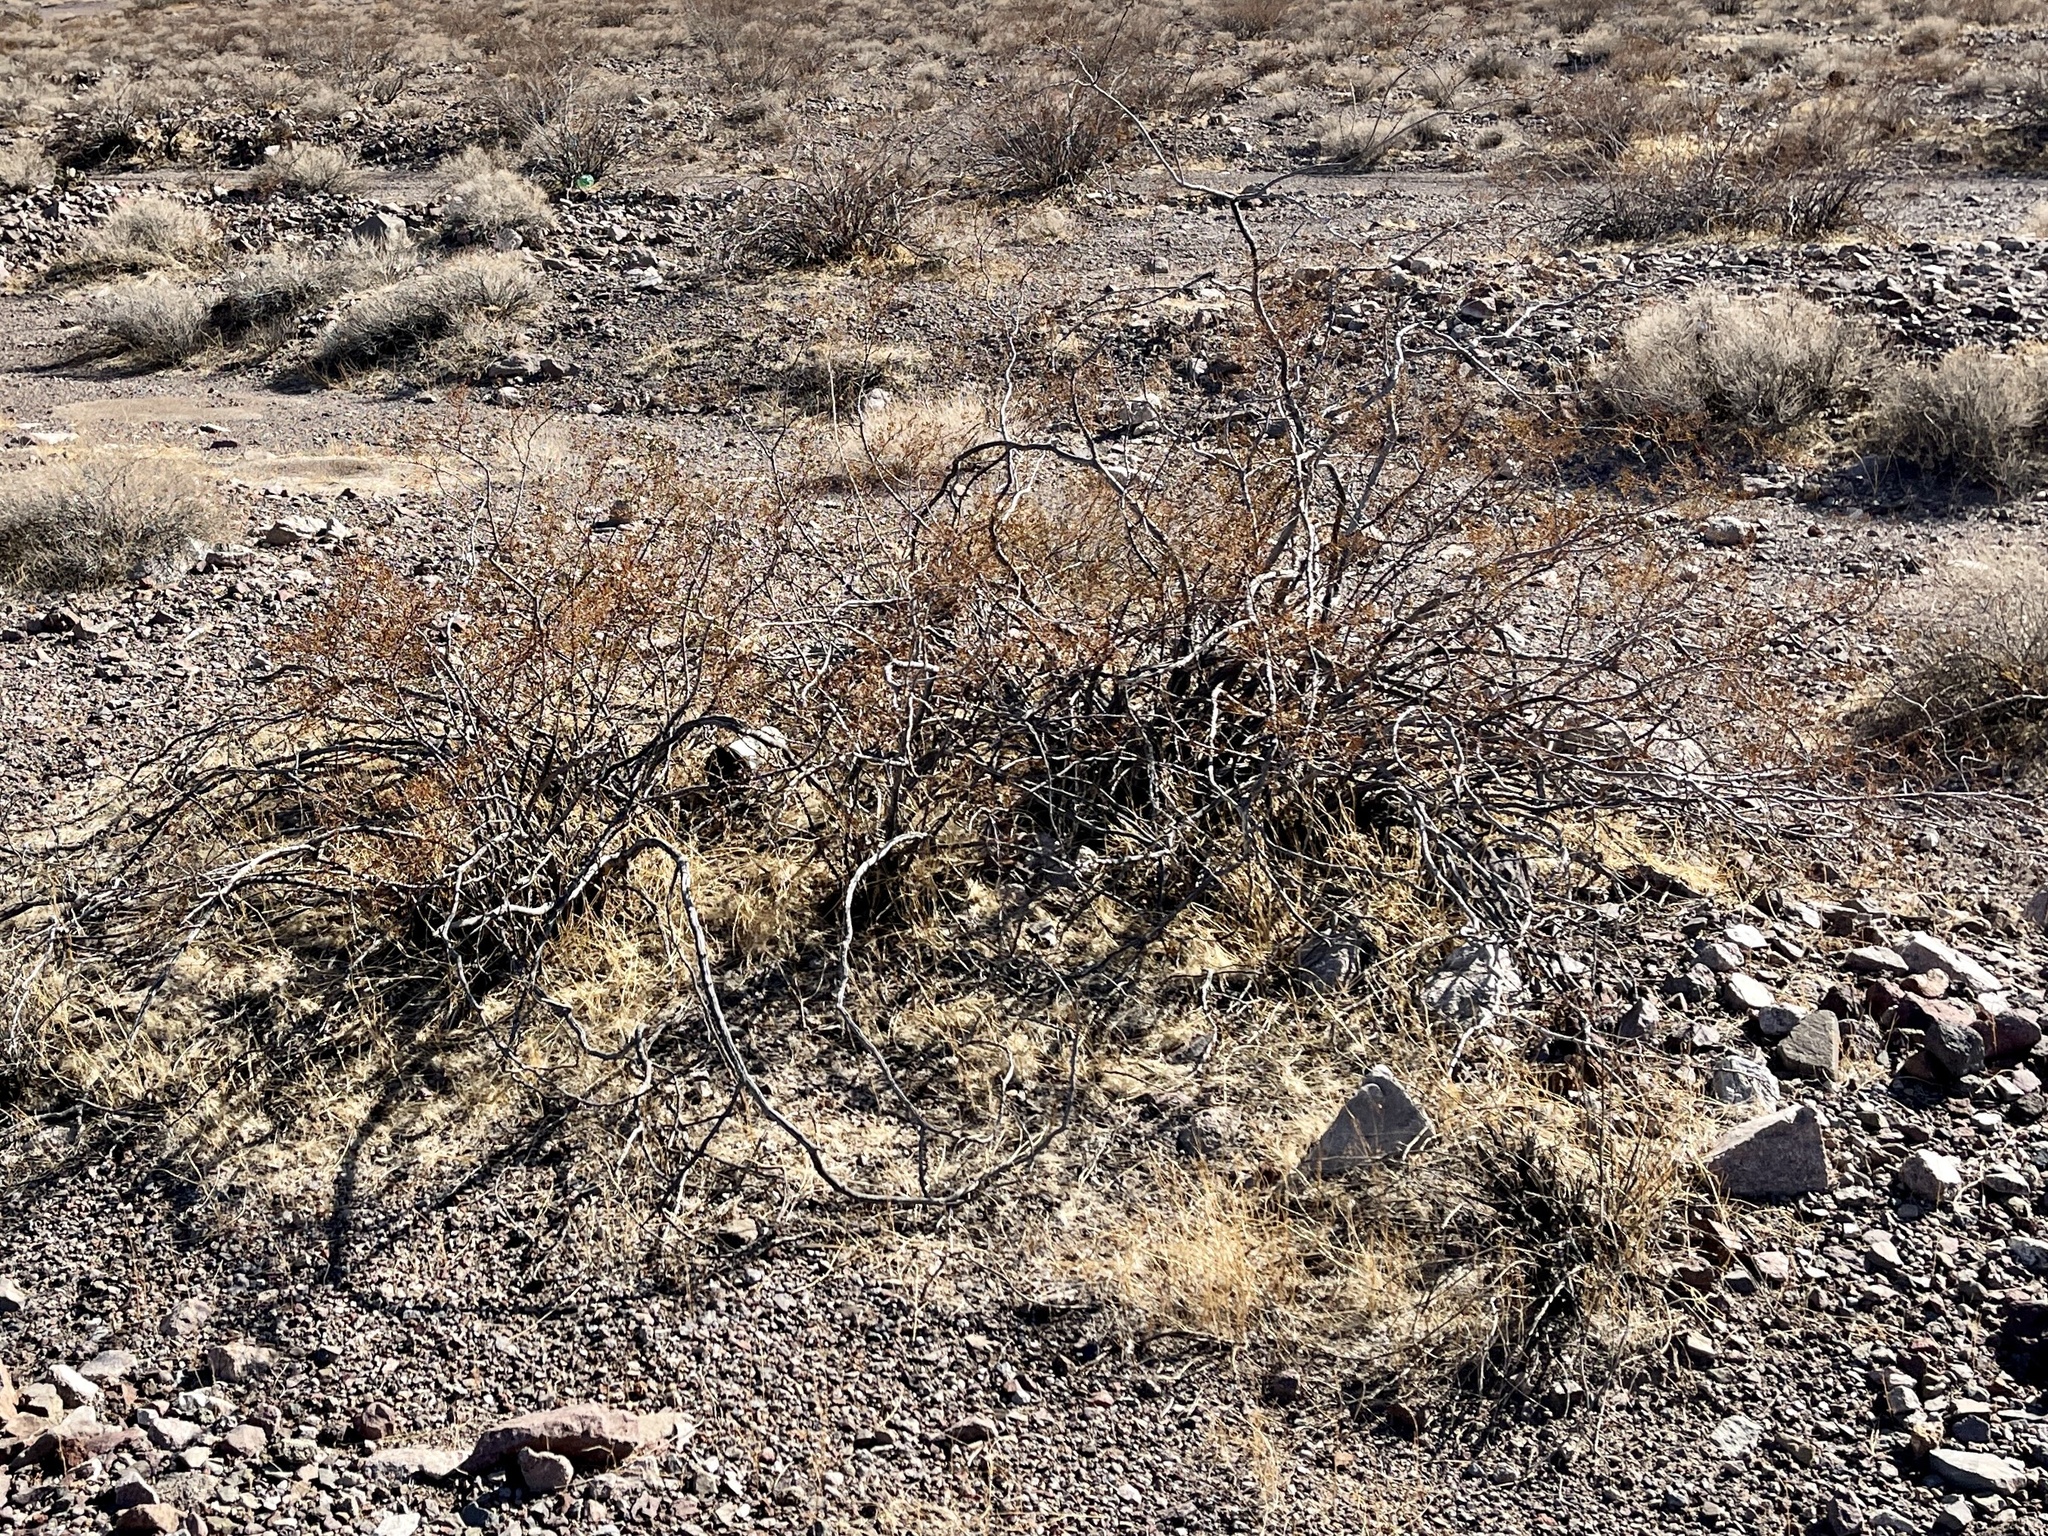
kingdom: Plantae
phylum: Tracheophyta
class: Magnoliopsida
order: Zygophyllales
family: Zygophyllaceae
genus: Larrea
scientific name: Larrea tridentata
